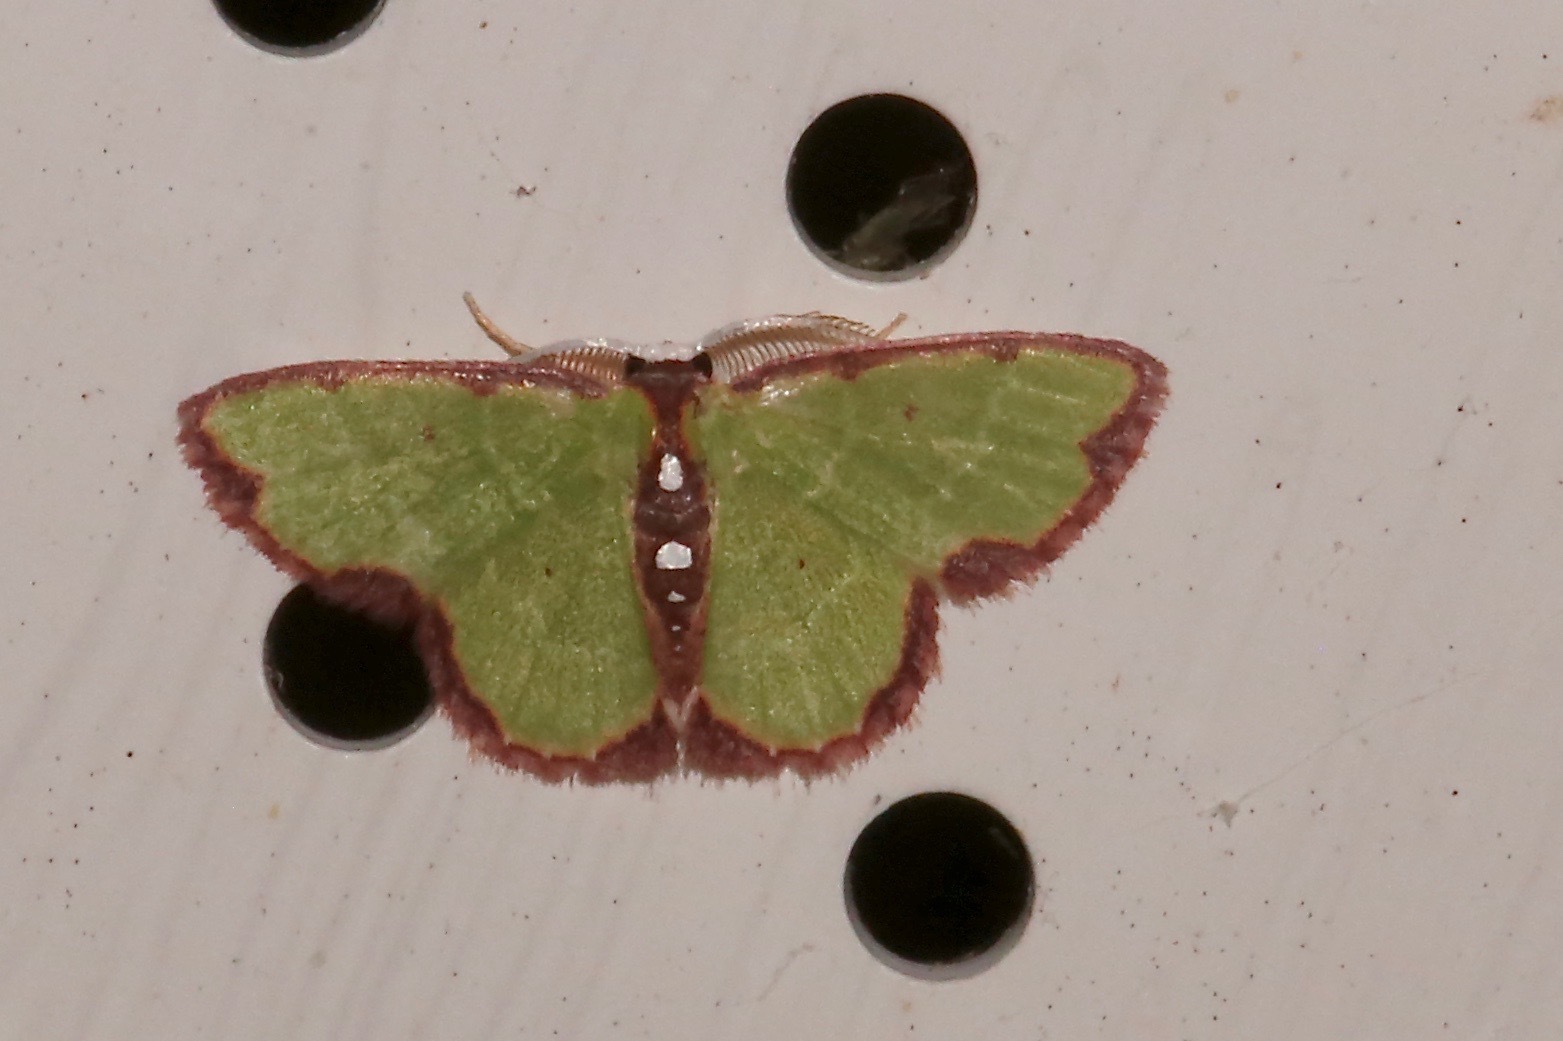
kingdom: Animalia
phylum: Arthropoda
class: Insecta
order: Lepidoptera
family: Geometridae
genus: Synchlora
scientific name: Synchlora cupedinaria
